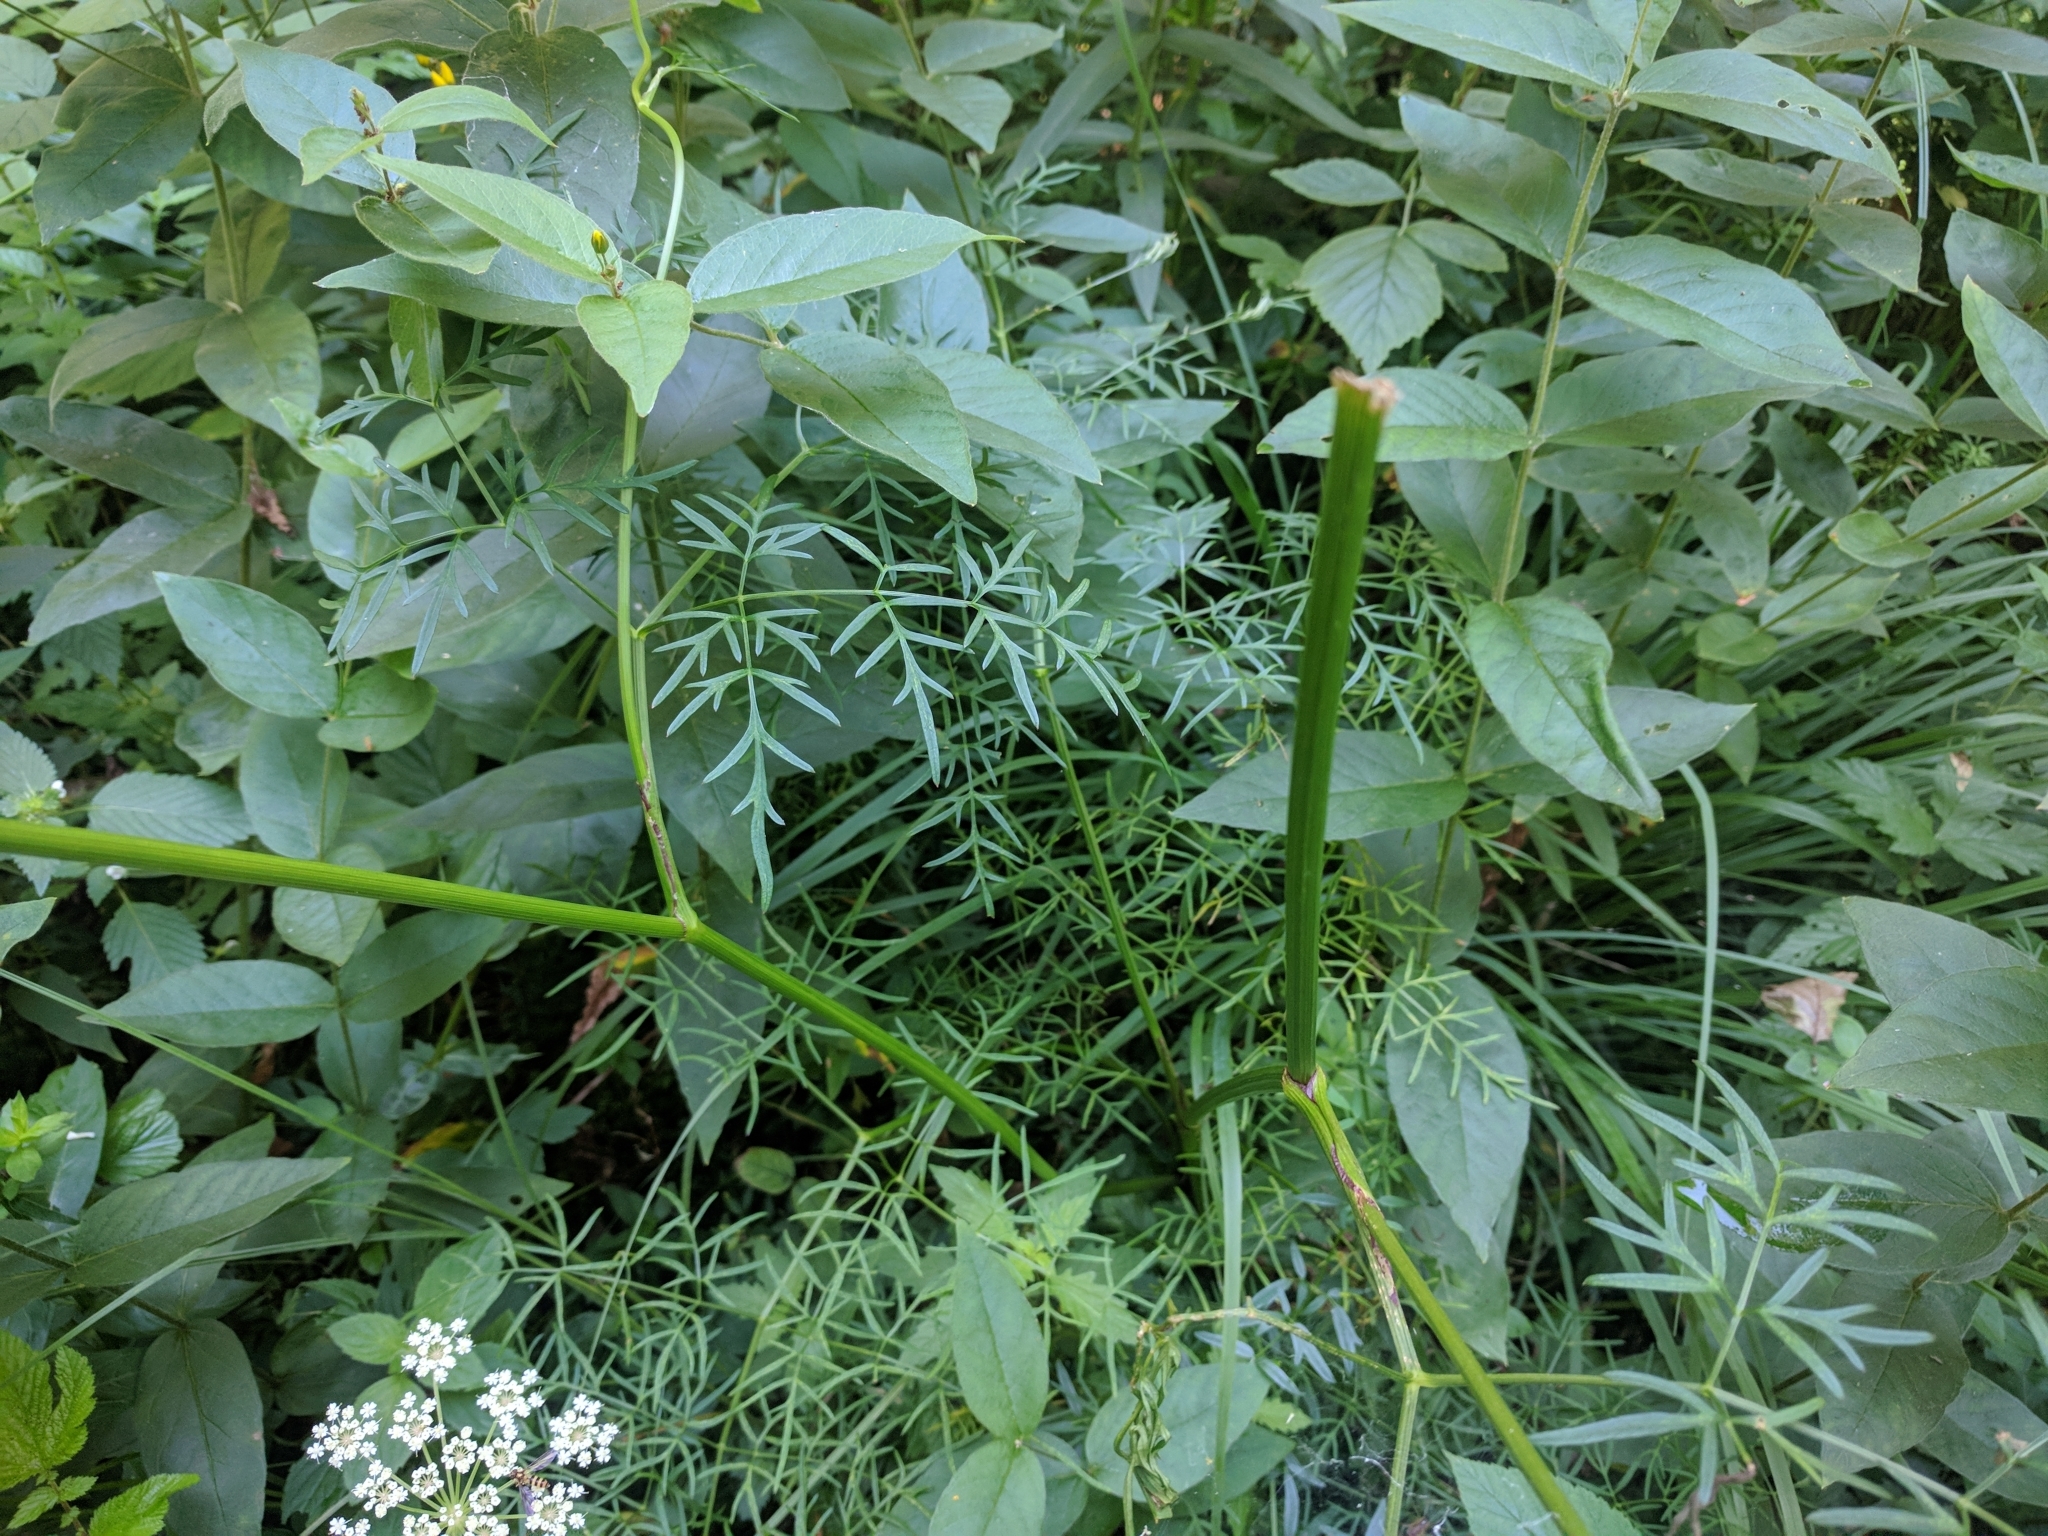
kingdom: Plantae
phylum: Tracheophyta
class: Magnoliopsida
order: Apiales
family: Apiaceae
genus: Laserpitium
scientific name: Laserpitium peucedanoides
